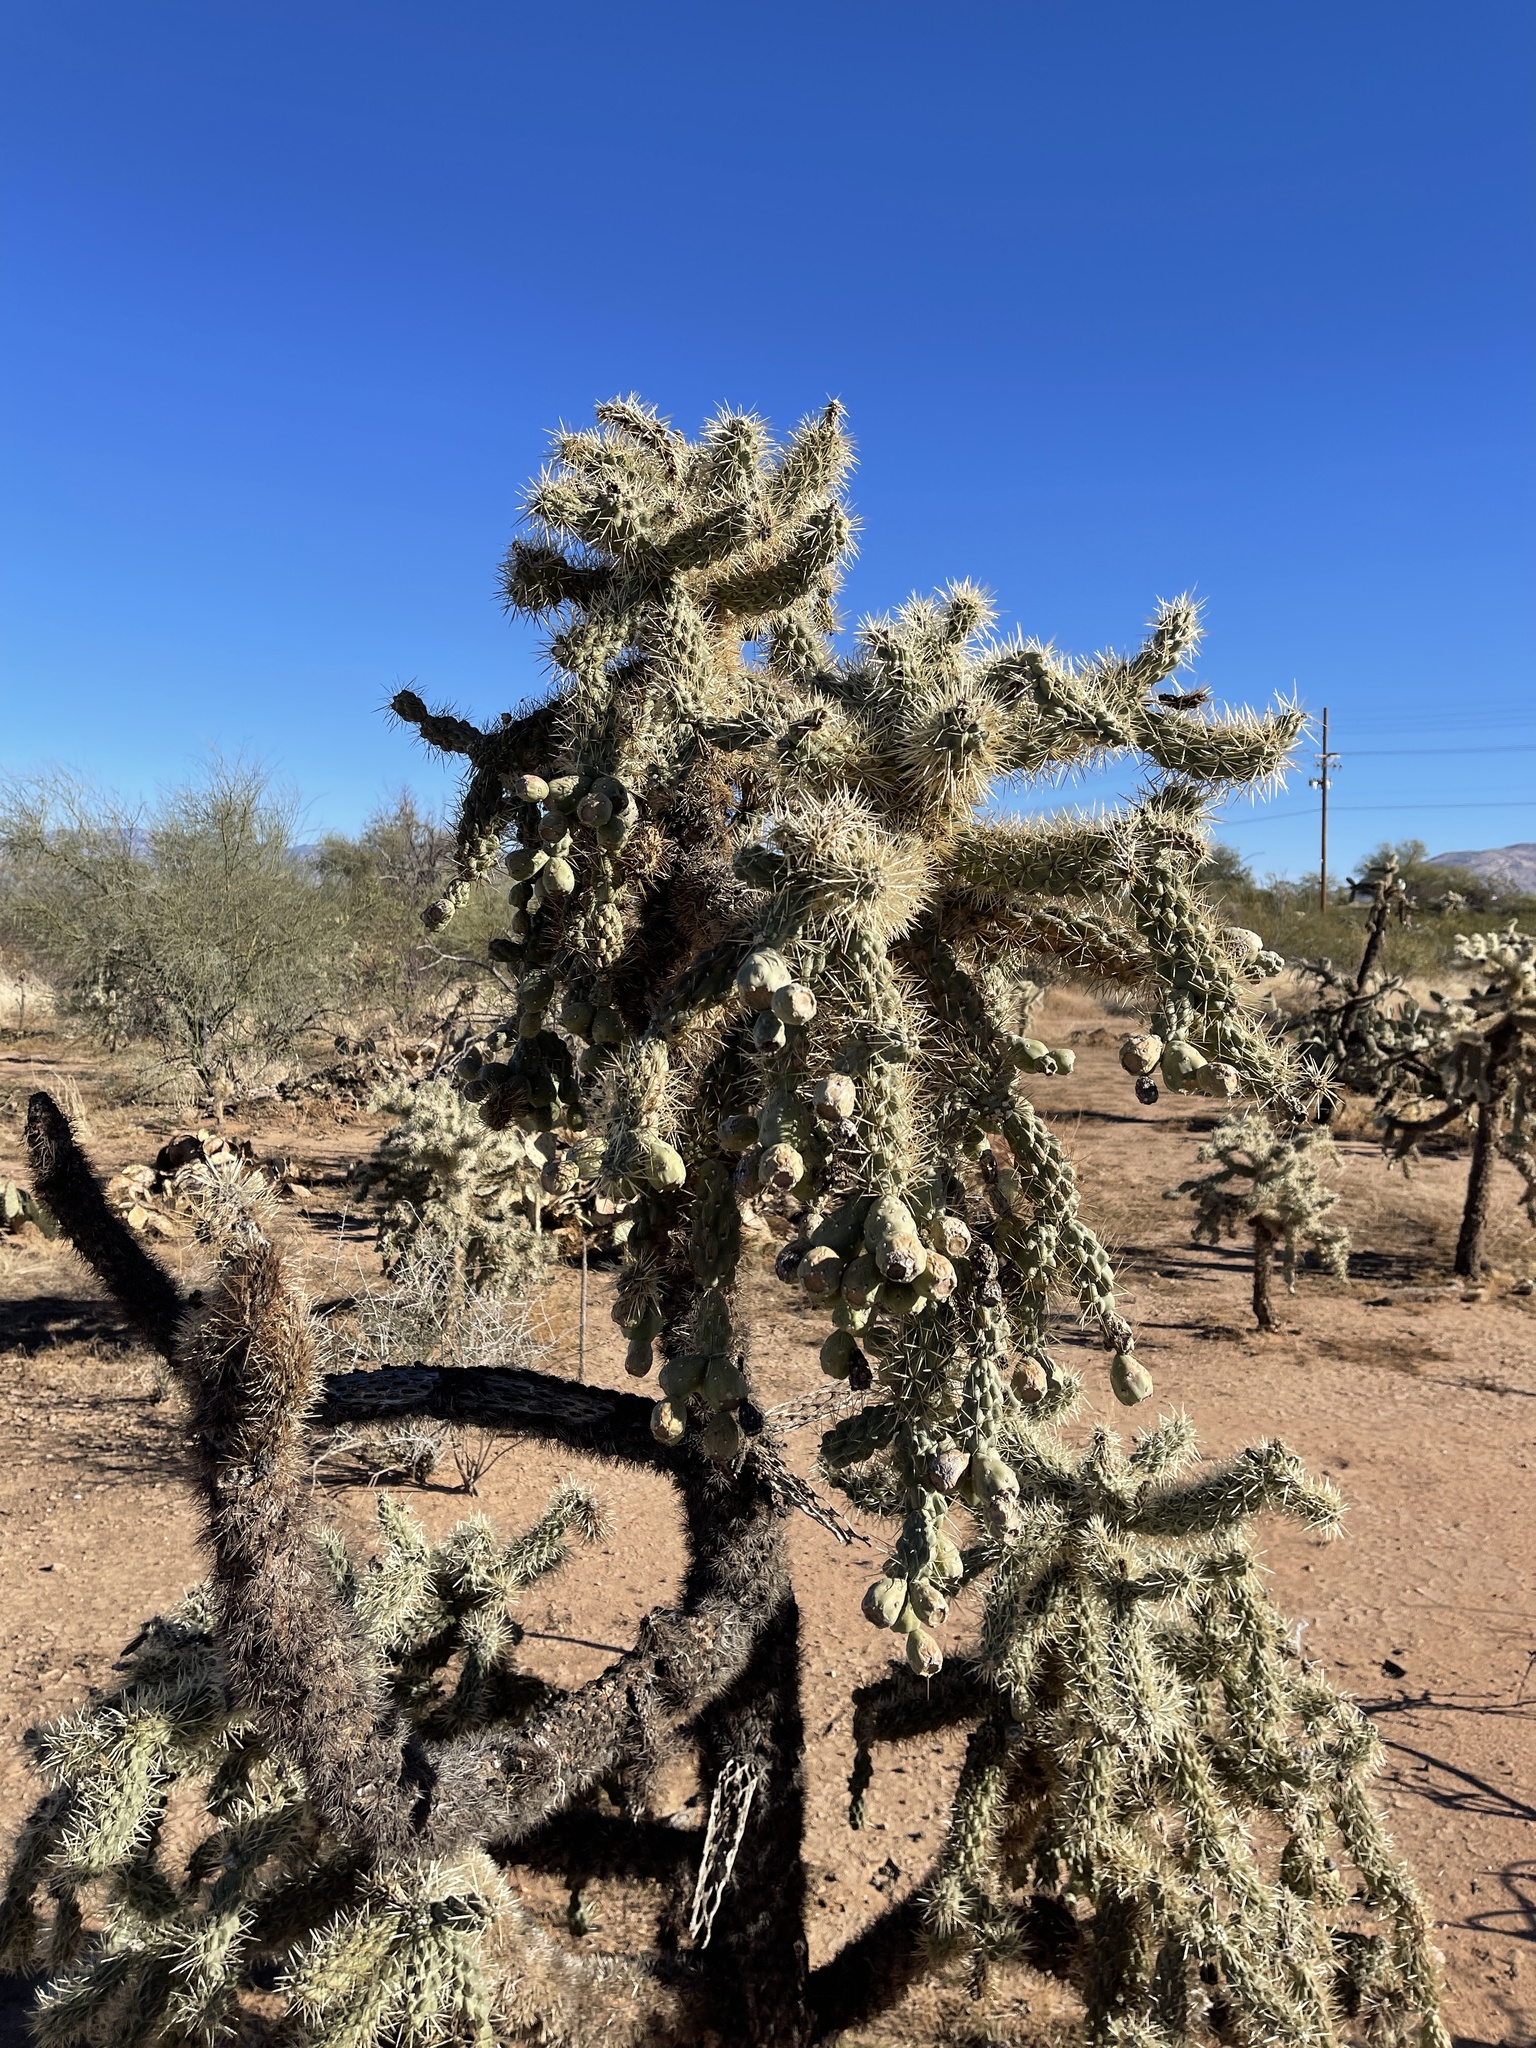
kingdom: Plantae
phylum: Tracheophyta
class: Magnoliopsida
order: Caryophyllales
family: Cactaceae
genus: Cylindropuntia
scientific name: Cylindropuntia fulgida
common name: Jumping cholla
